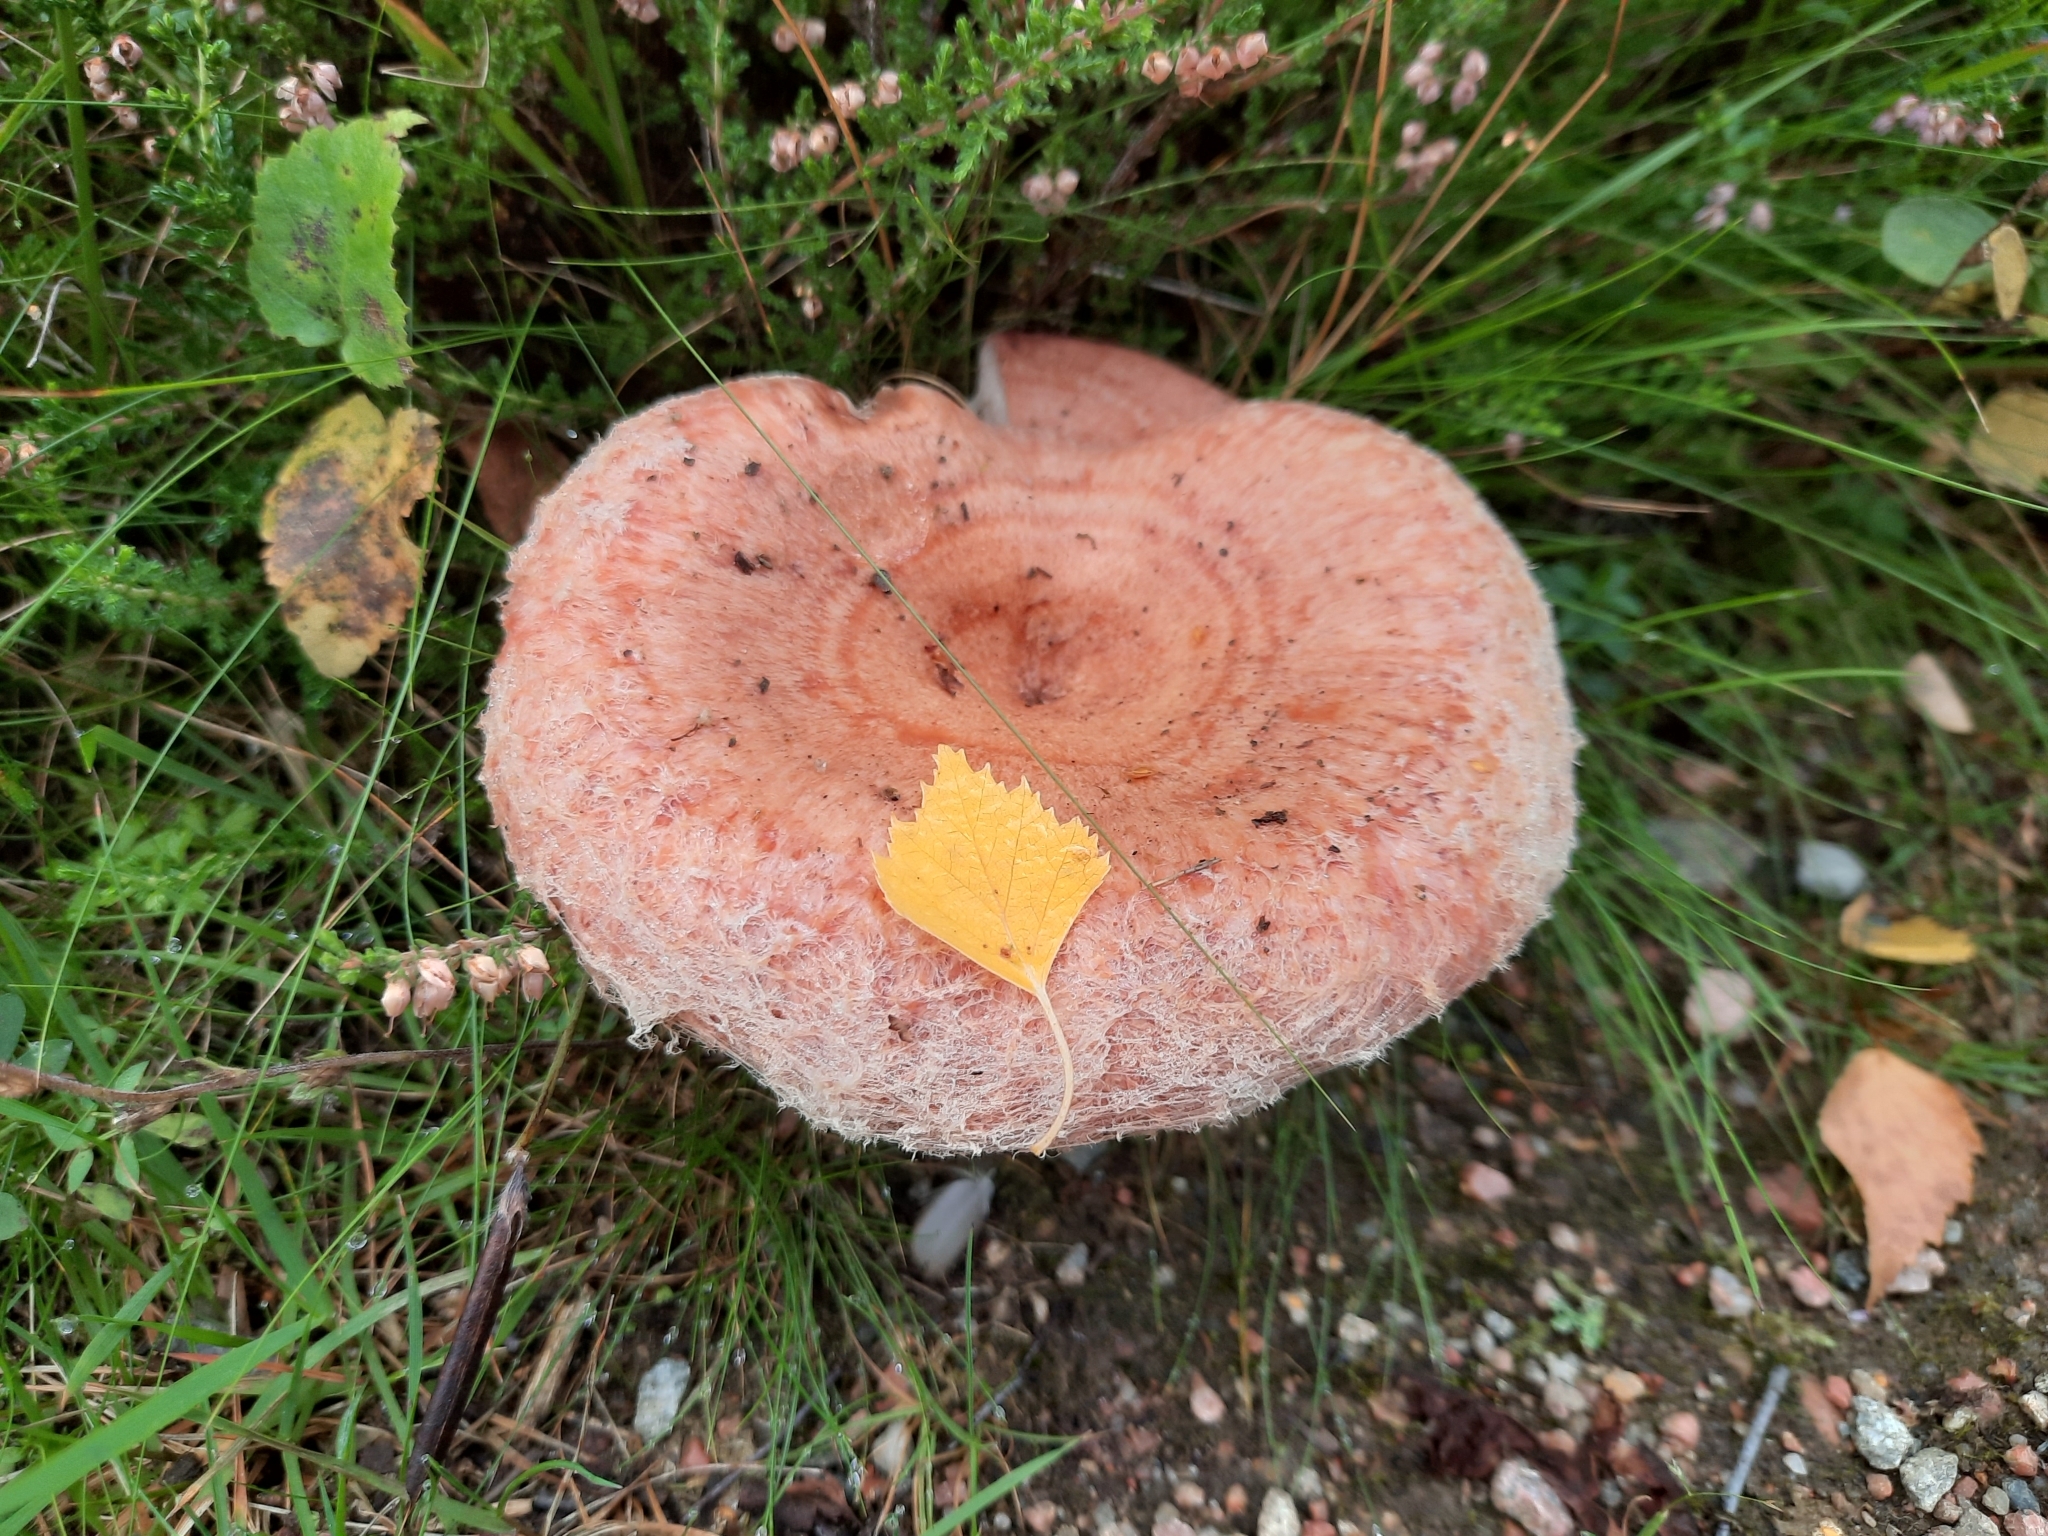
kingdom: Fungi
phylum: Basidiomycota
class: Agaricomycetes
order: Russulales
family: Russulaceae
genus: Lactarius
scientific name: Lactarius torminosus
